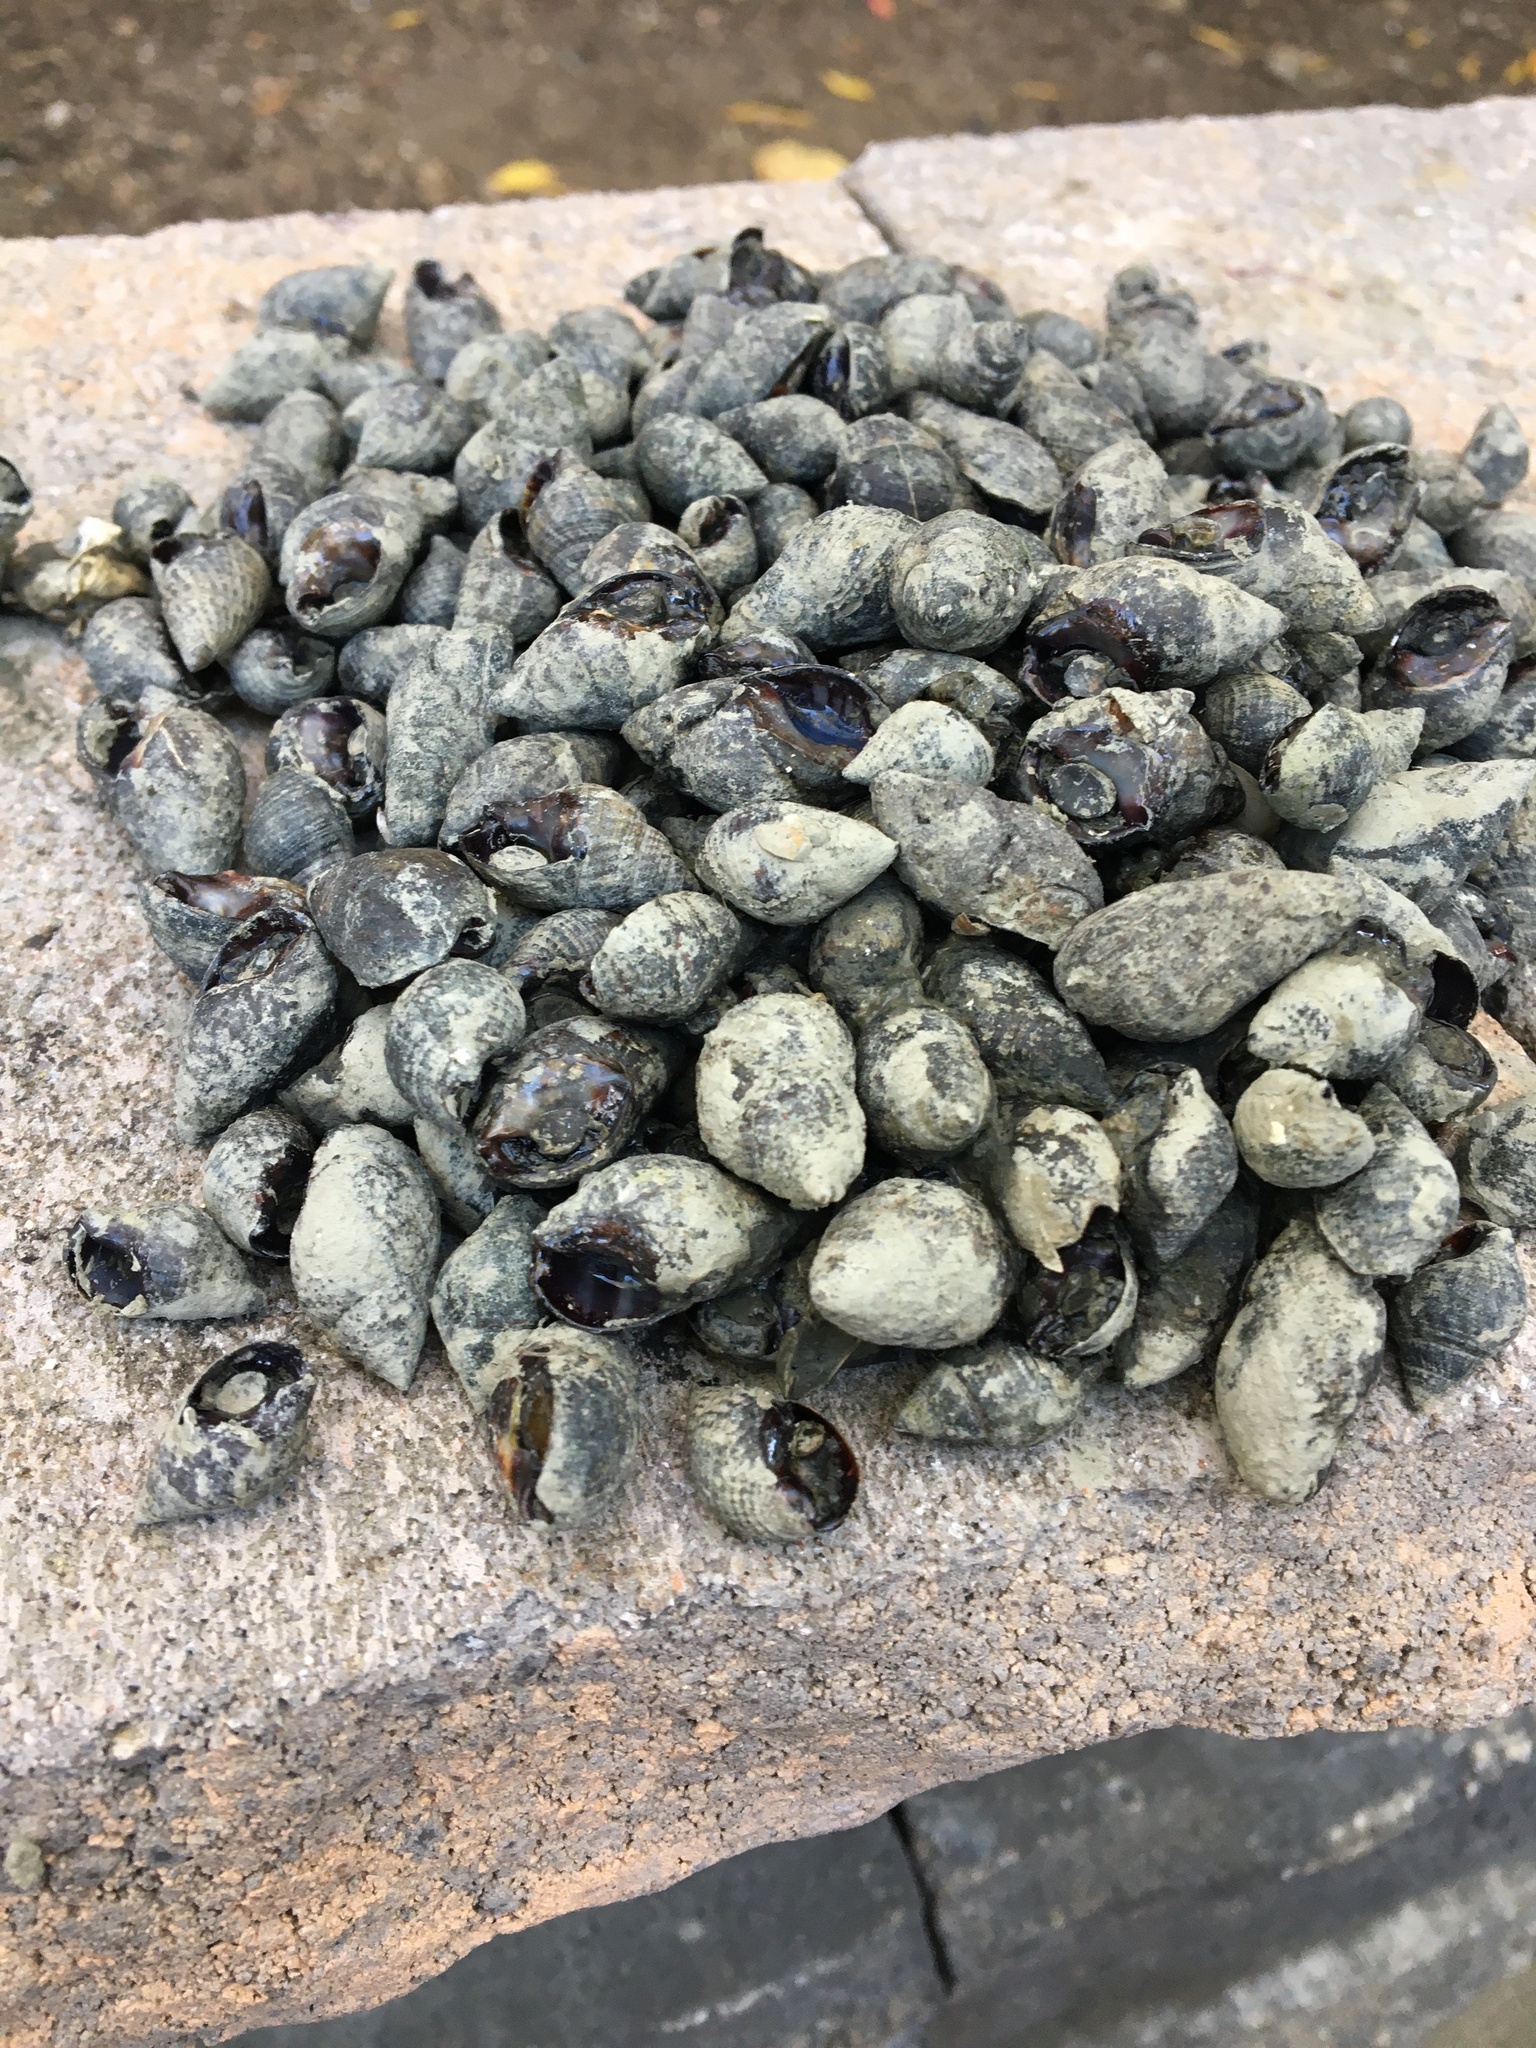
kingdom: Animalia
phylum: Mollusca
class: Gastropoda
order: Neogastropoda
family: Nassariidae
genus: Ilyanassa
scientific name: Ilyanassa obsoleta
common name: Eastern mudsnail
